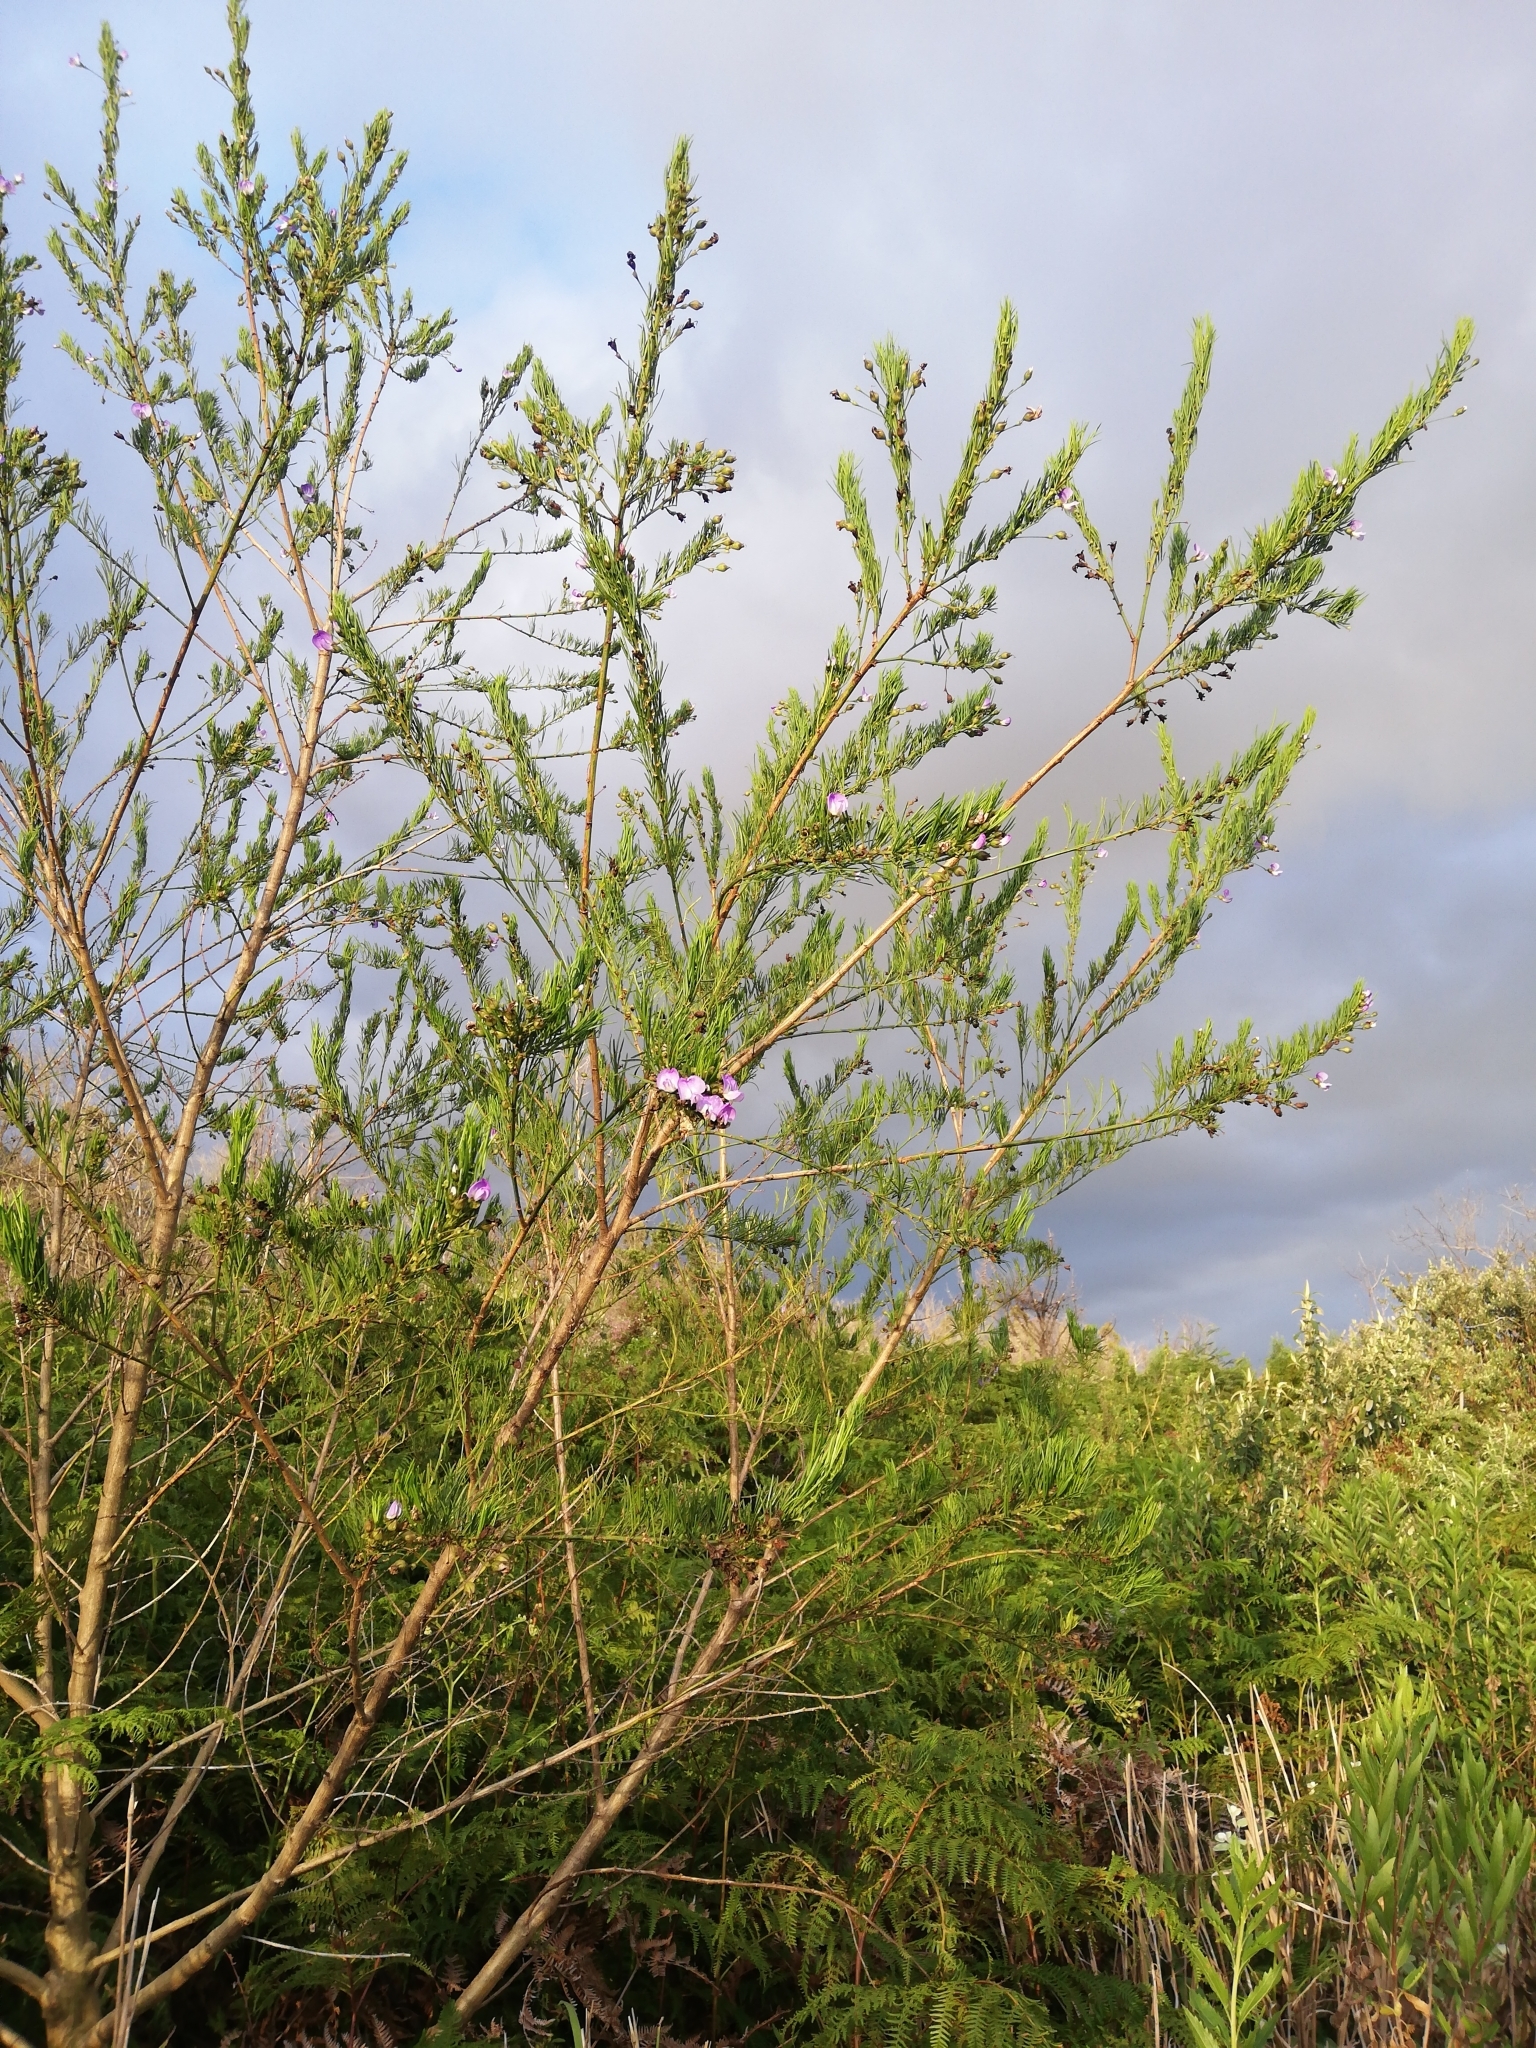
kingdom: Plantae
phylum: Tracheophyta
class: Magnoliopsida
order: Fabales
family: Fabaceae
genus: Psoralea
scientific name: Psoralea arborea
